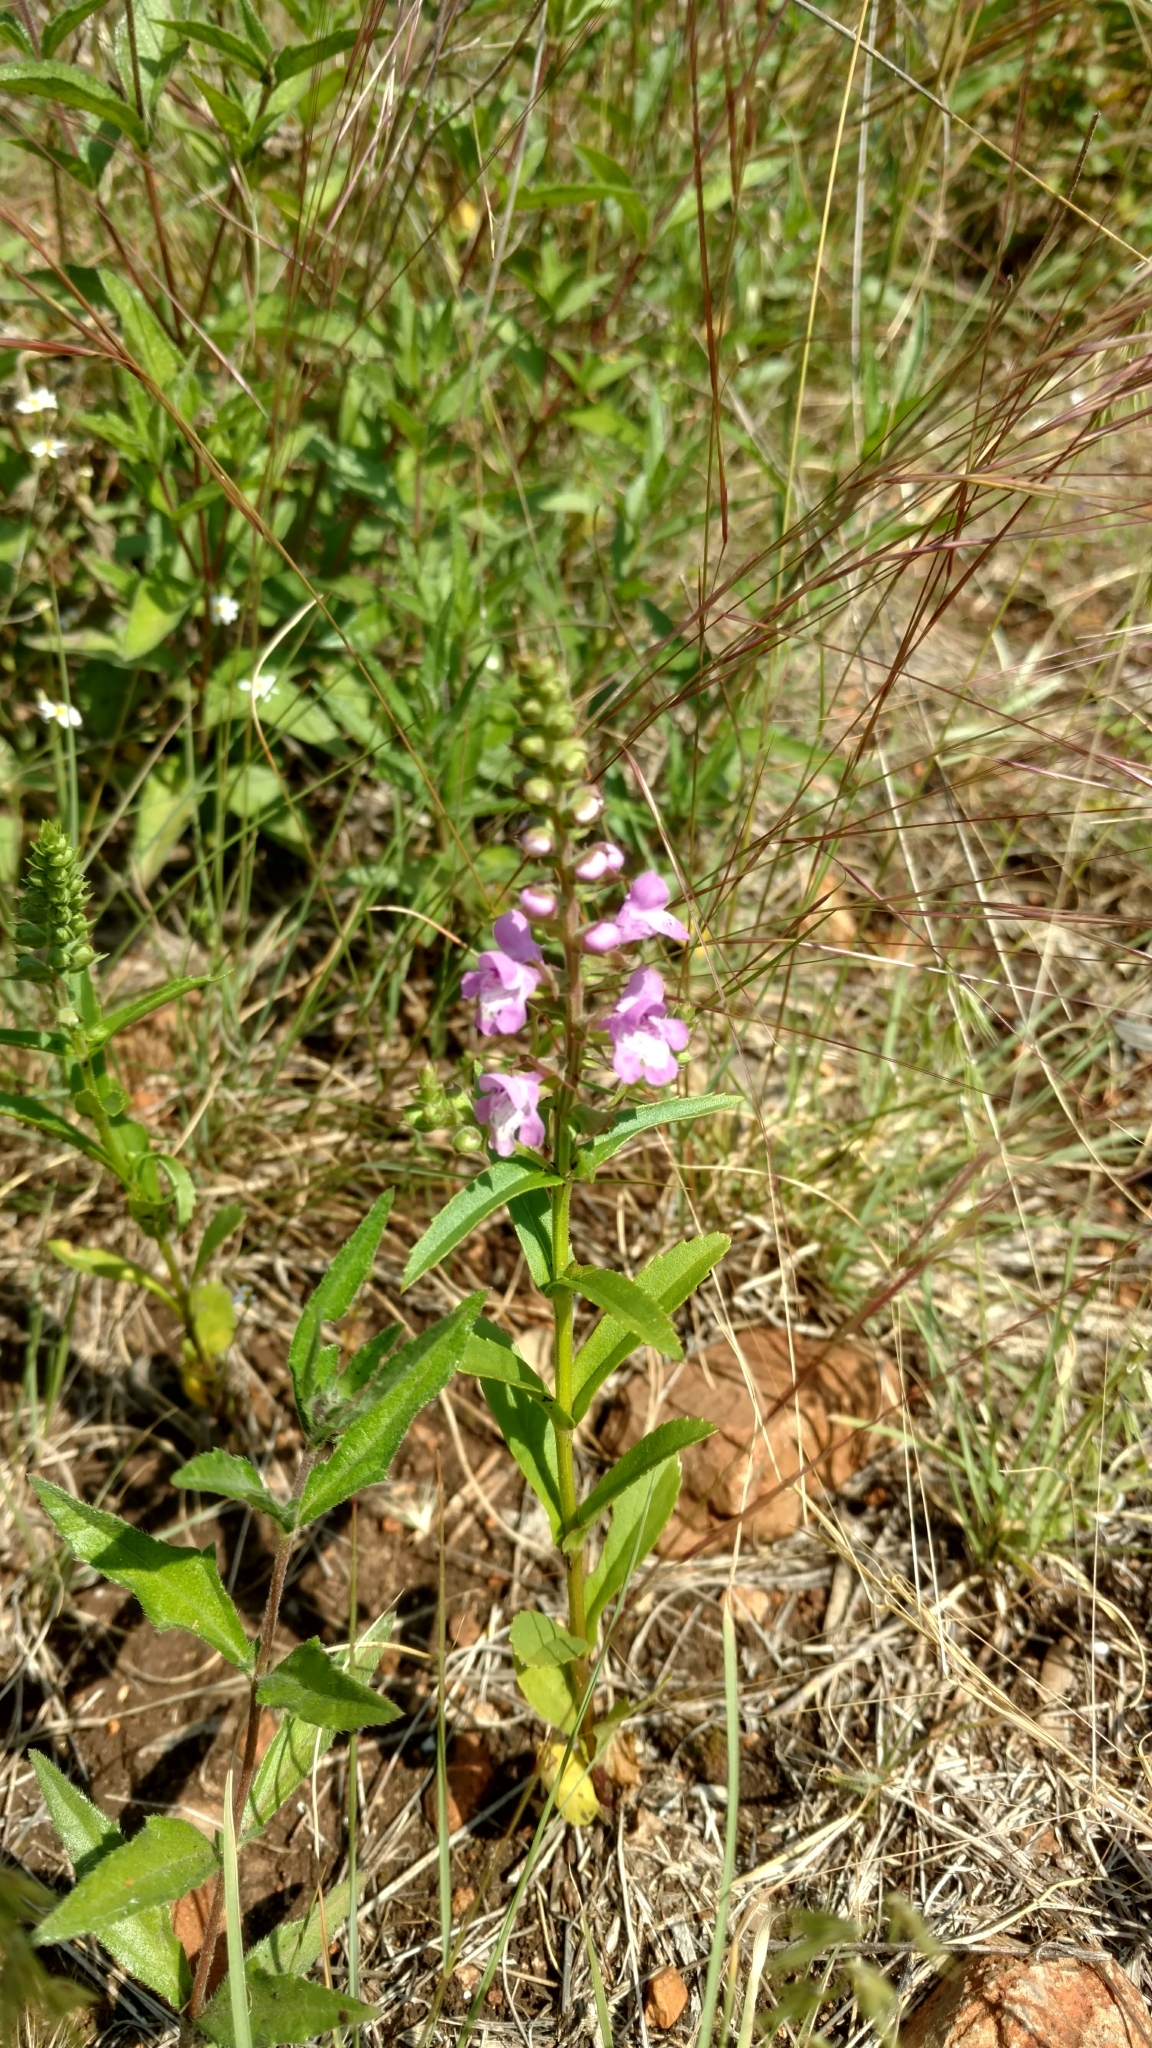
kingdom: Plantae
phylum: Tracheophyta
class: Magnoliopsida
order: Lamiales
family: Lamiaceae
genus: Warnockia
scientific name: Warnockia scutellarioides
